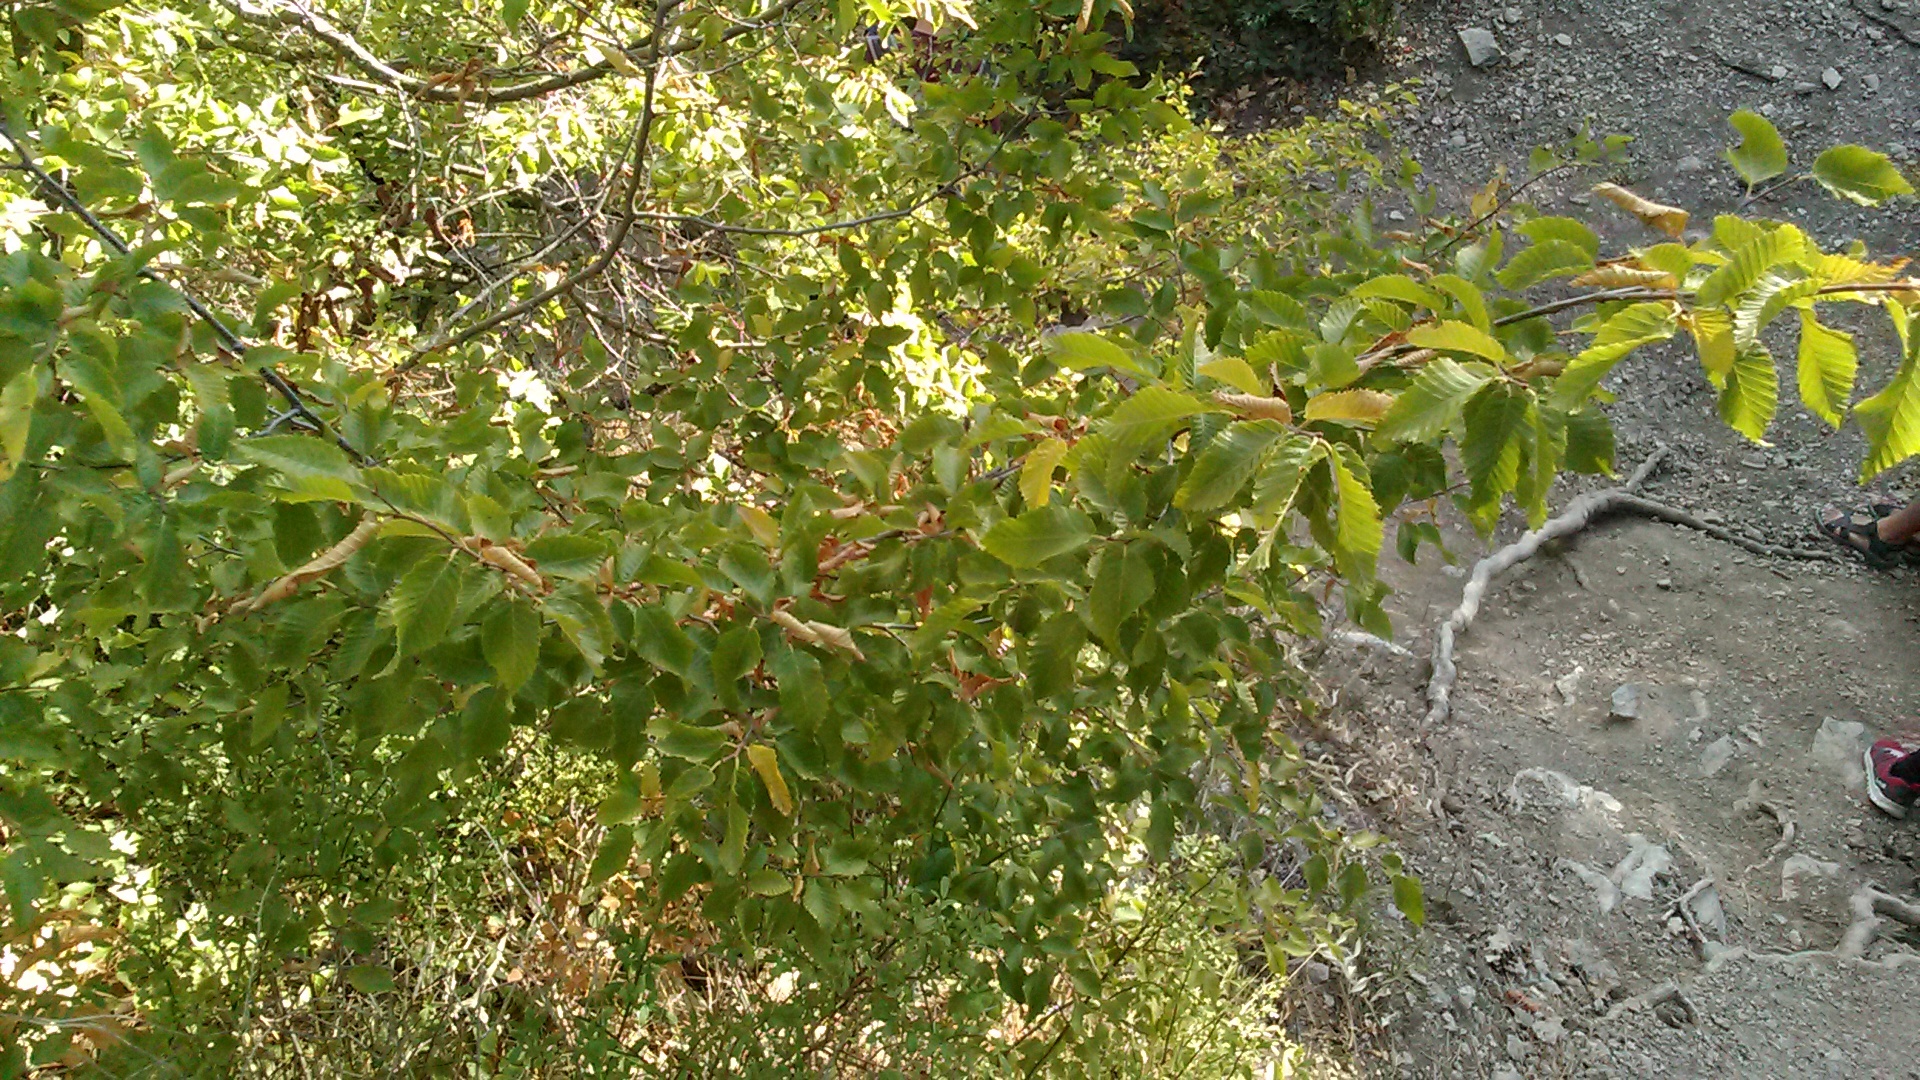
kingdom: Plantae
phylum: Tracheophyta
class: Magnoliopsida
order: Fagales
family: Betulaceae
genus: Carpinus
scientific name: Carpinus orientalis
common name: Eastern hornbeam
